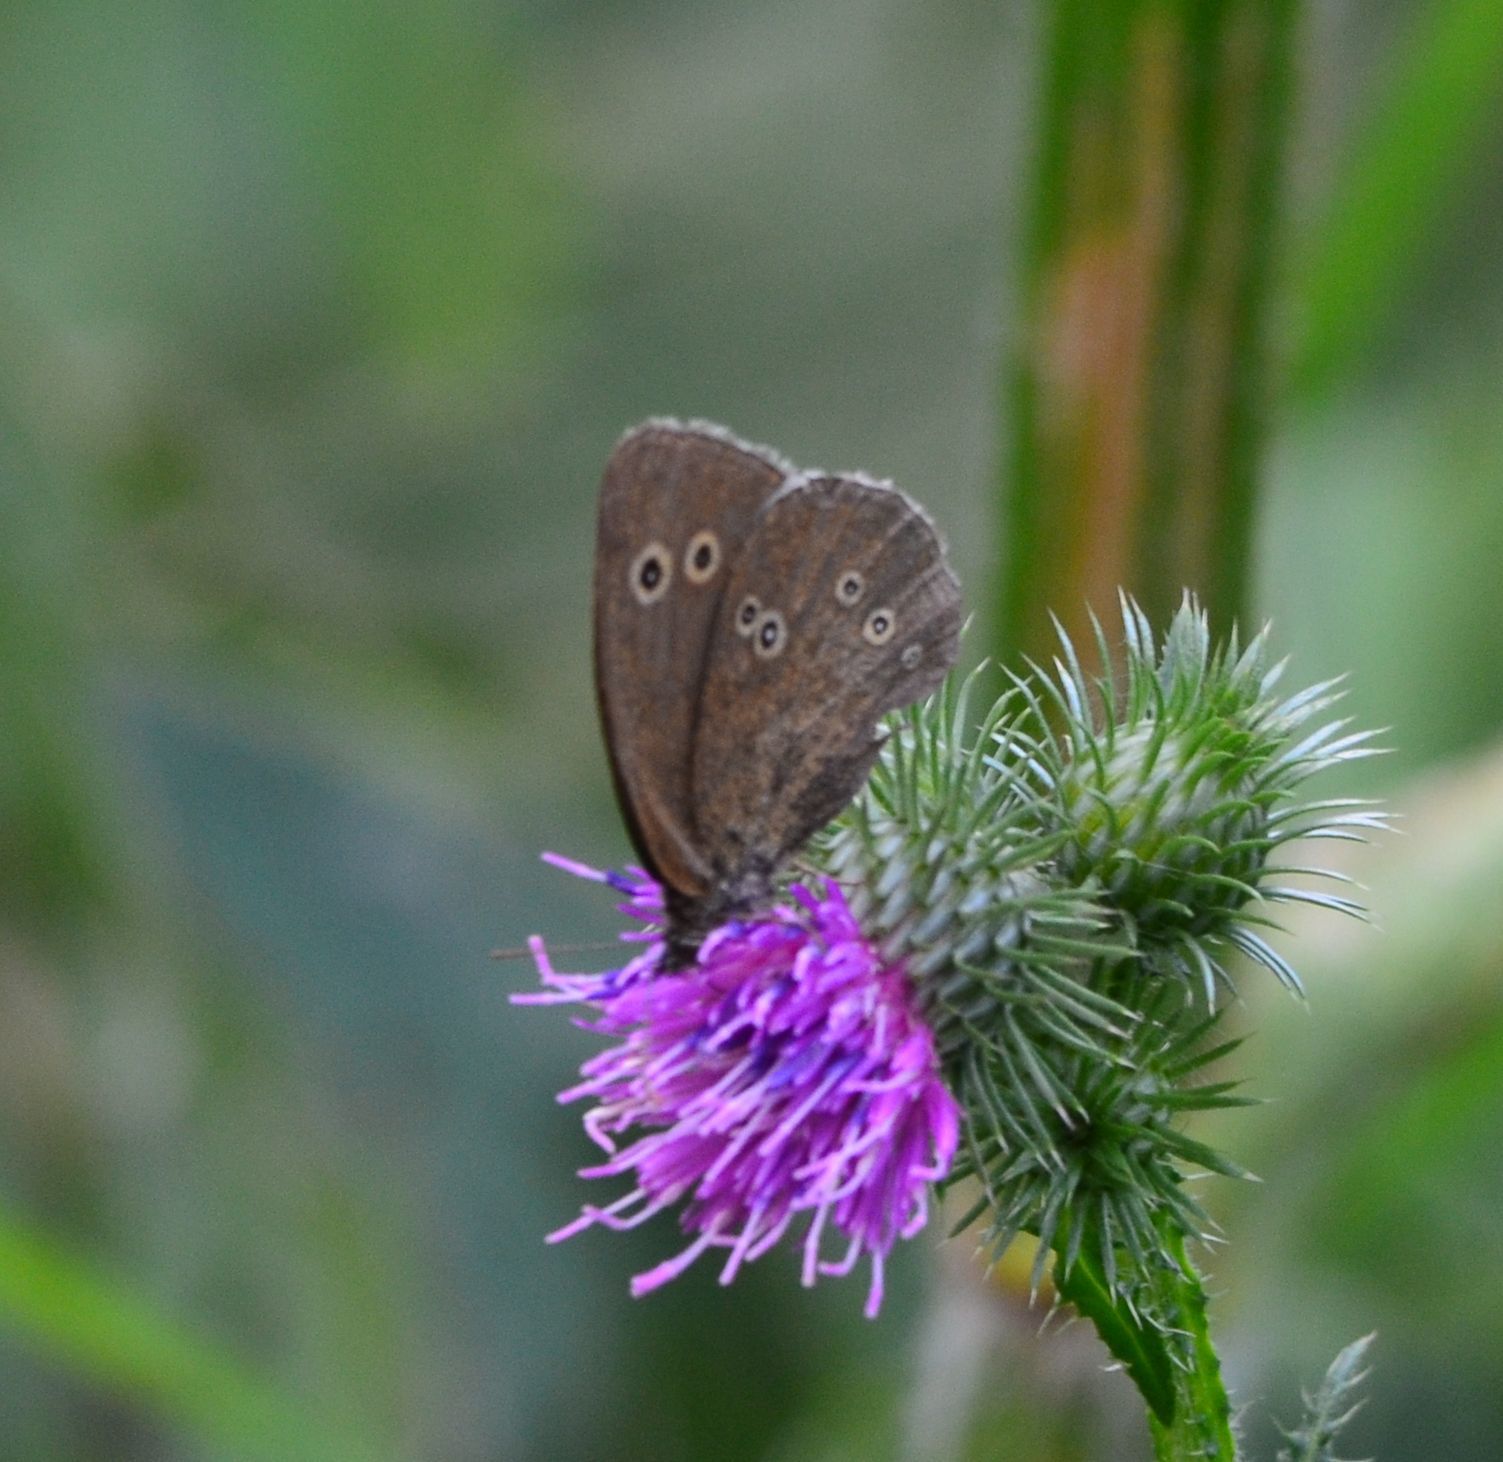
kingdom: Animalia
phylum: Arthropoda
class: Insecta
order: Lepidoptera
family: Nymphalidae
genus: Aphantopus
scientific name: Aphantopus hyperantus
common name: Ringlet
